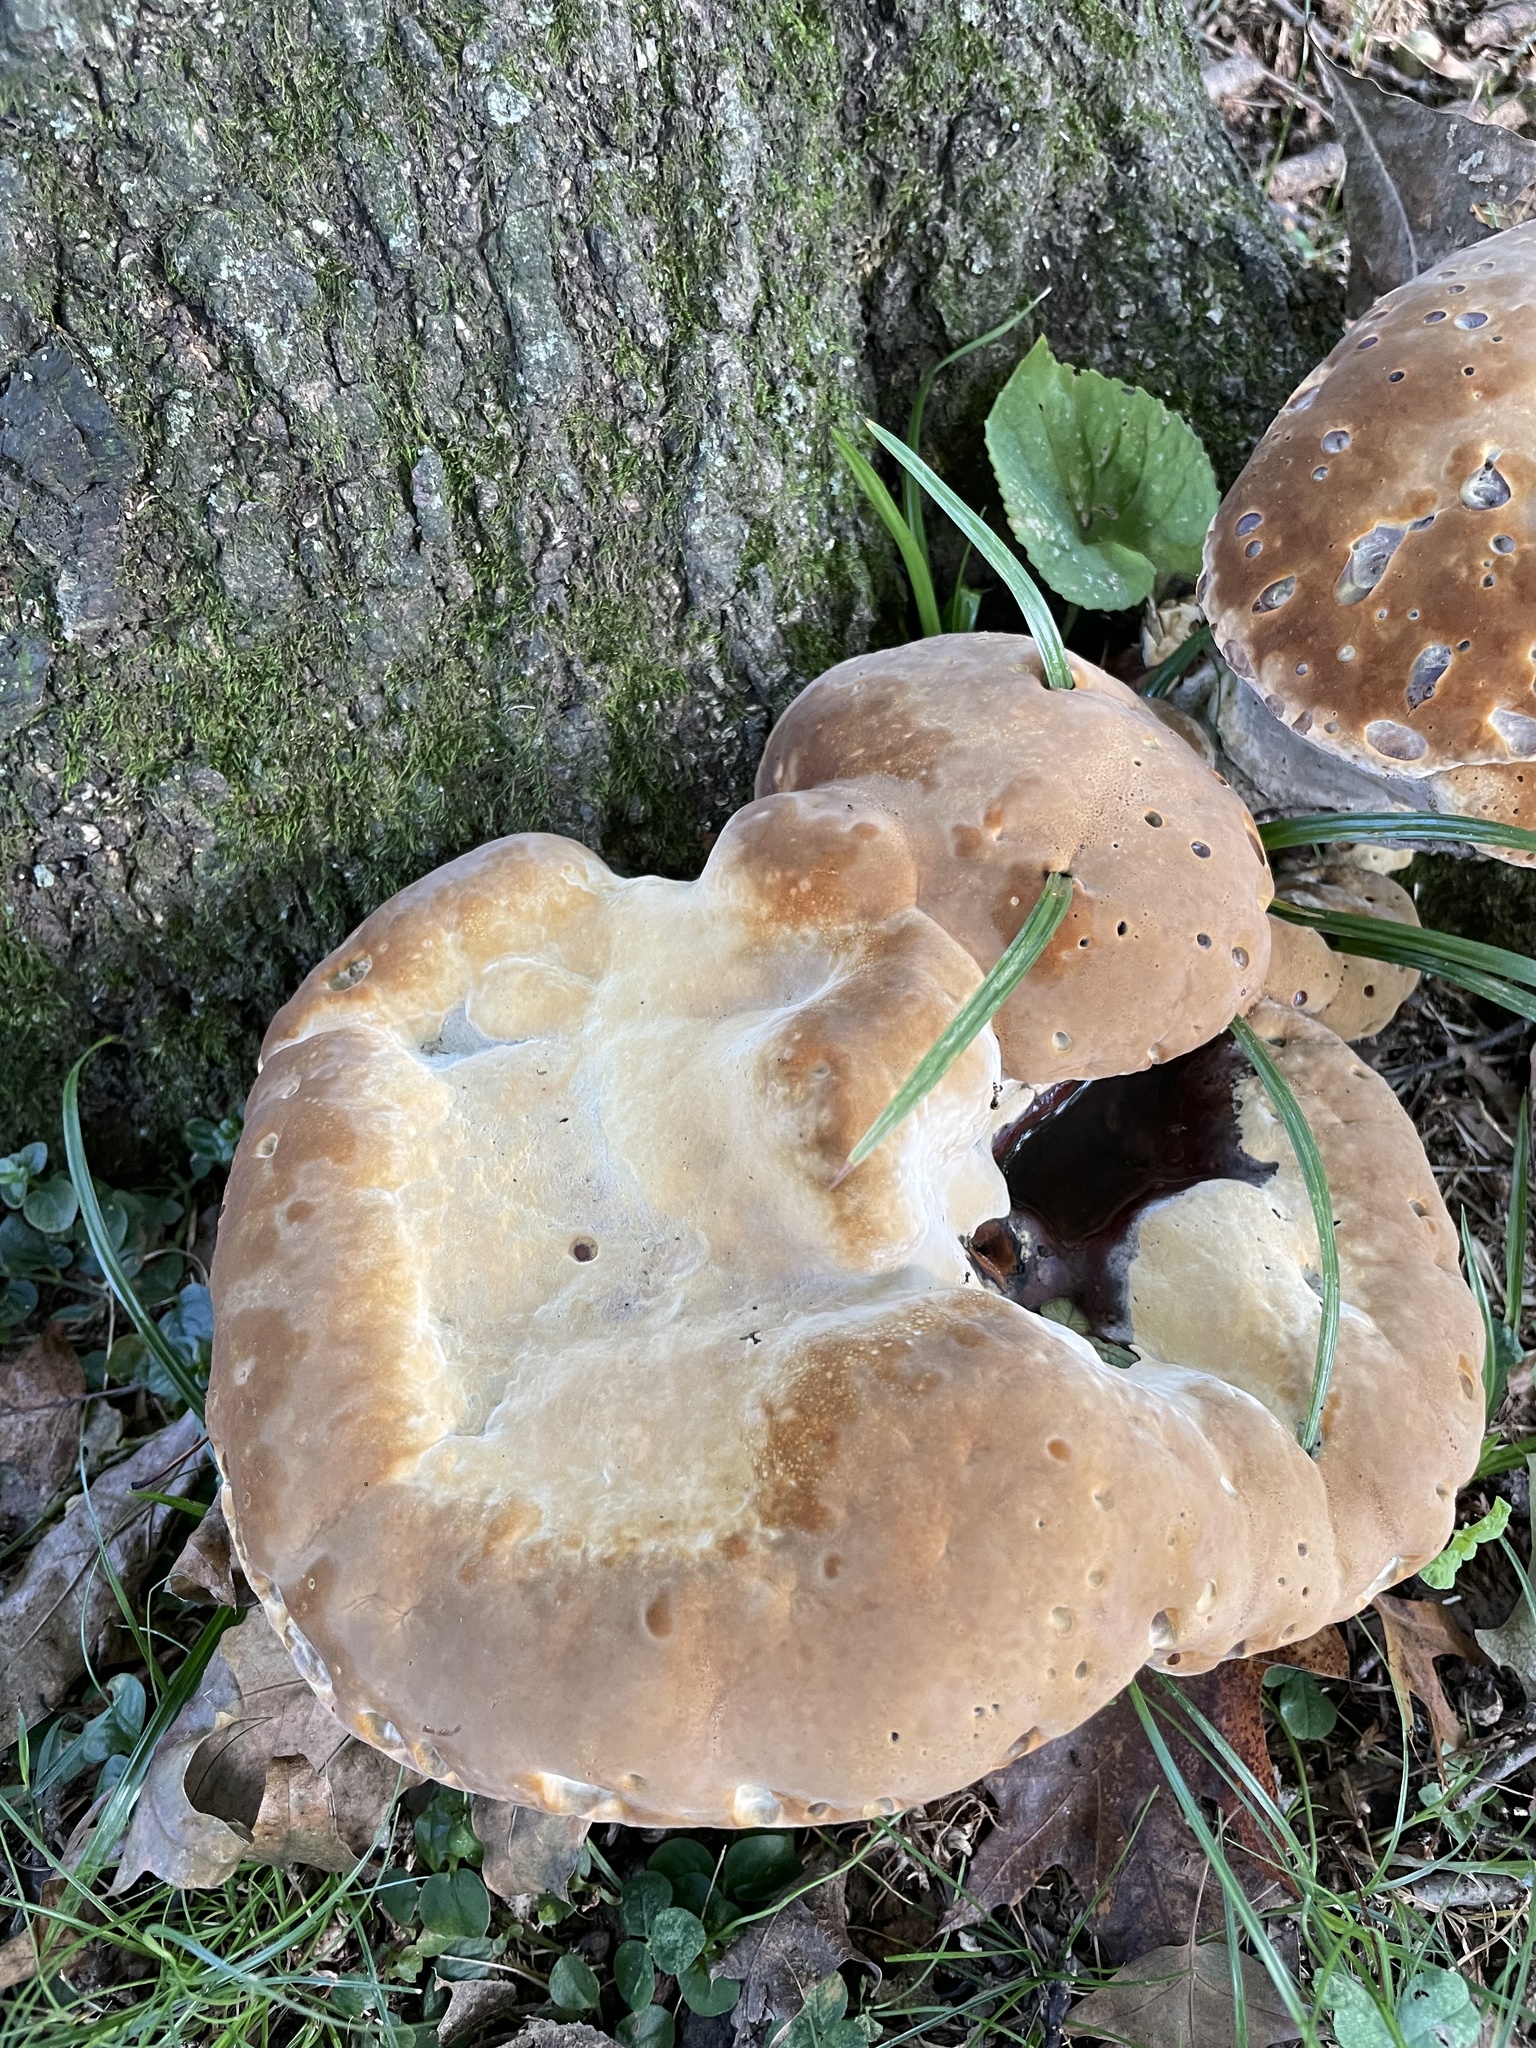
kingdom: Fungi
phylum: Basidiomycota
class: Agaricomycetes
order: Hymenochaetales
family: Hymenochaetaceae
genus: Pseudoinonotus
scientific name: Pseudoinonotus dryadeus
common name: Oak bracket
